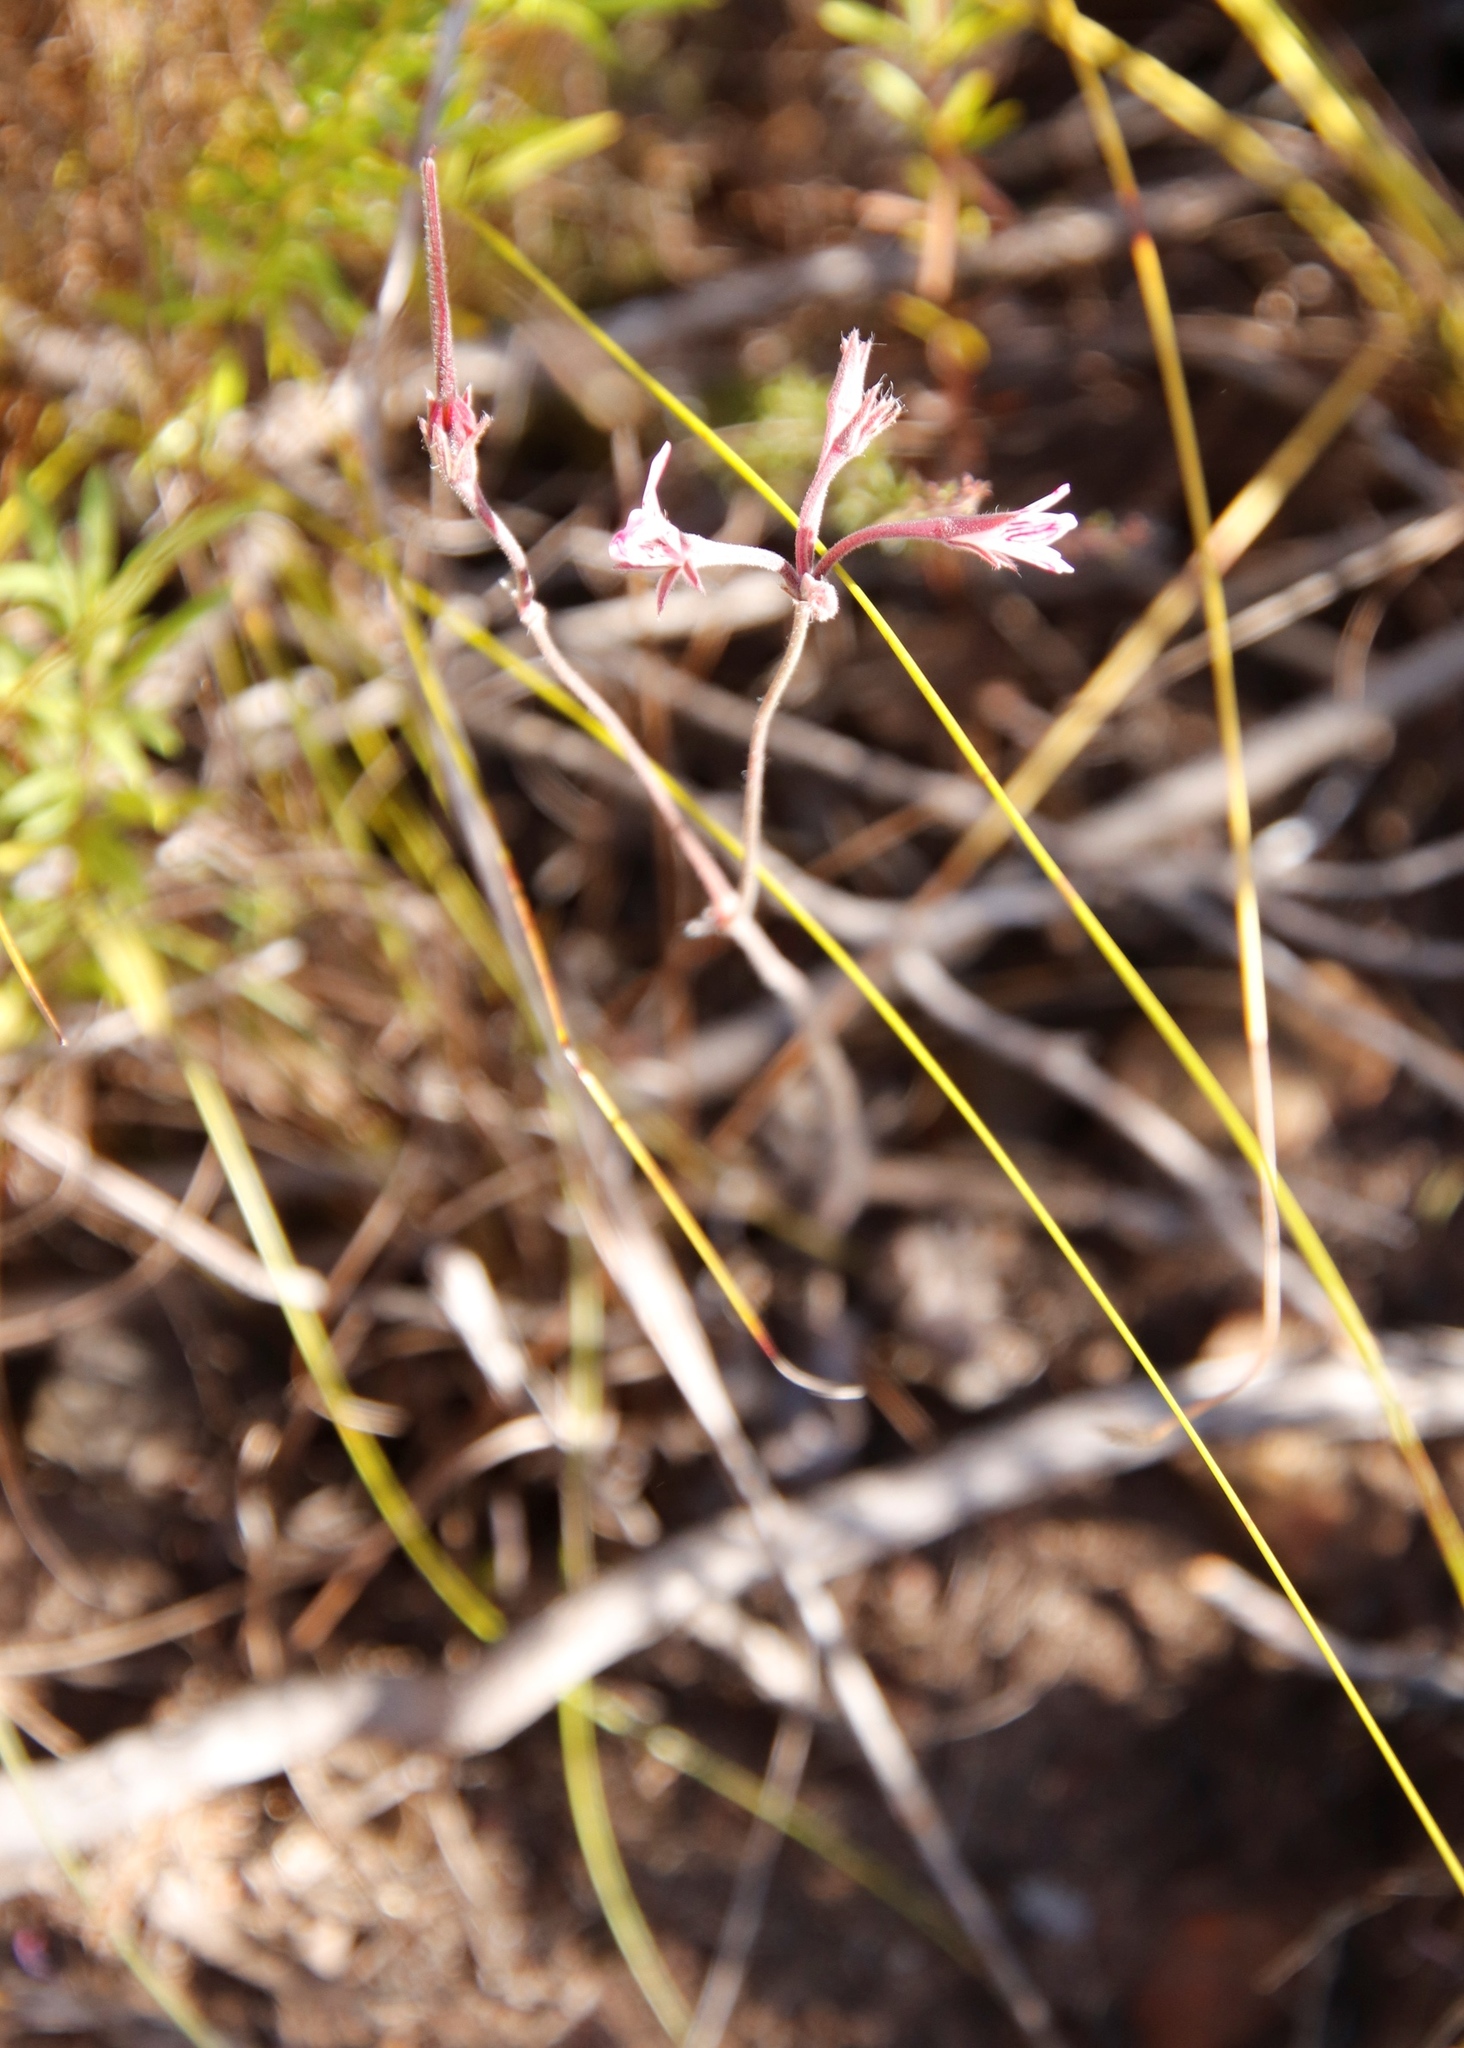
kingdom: Plantae
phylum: Tracheophyta
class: Magnoliopsida
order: Geraniales
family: Geraniaceae
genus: Pelargonium
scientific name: Pelargonium proliferum
